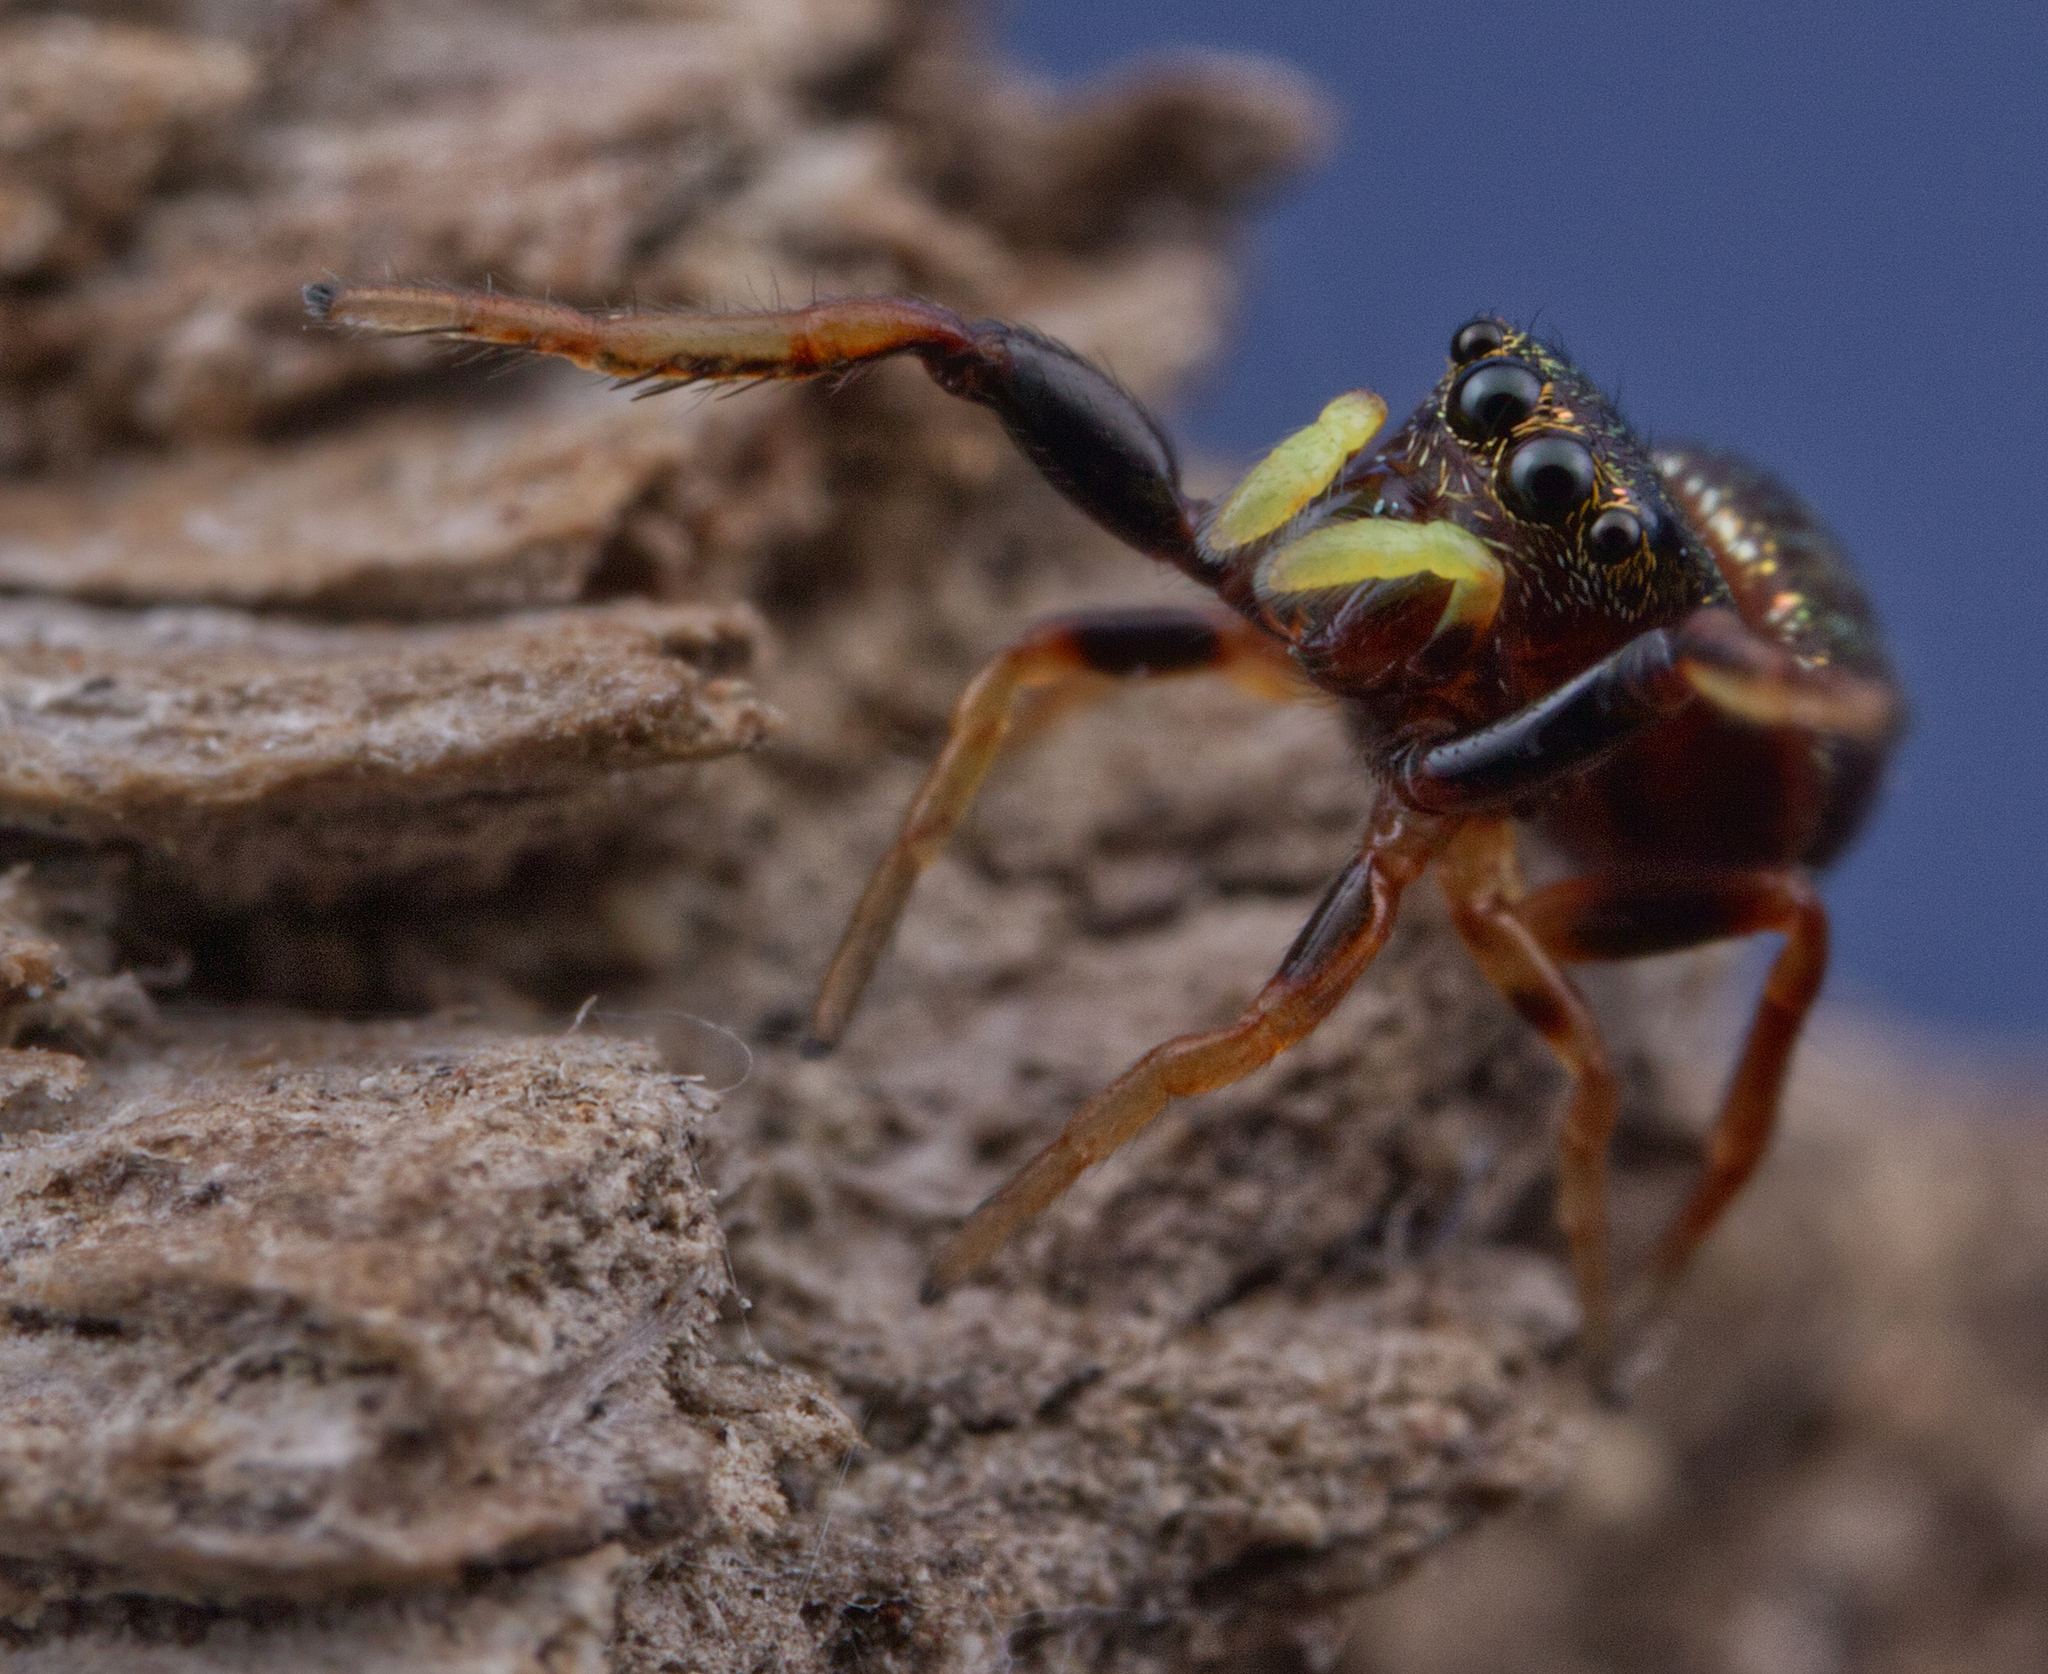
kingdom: Animalia
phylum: Arthropoda
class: Arachnida
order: Araneae
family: Salticidae
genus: Zygoballus
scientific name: Zygoballus sexpunctatus
